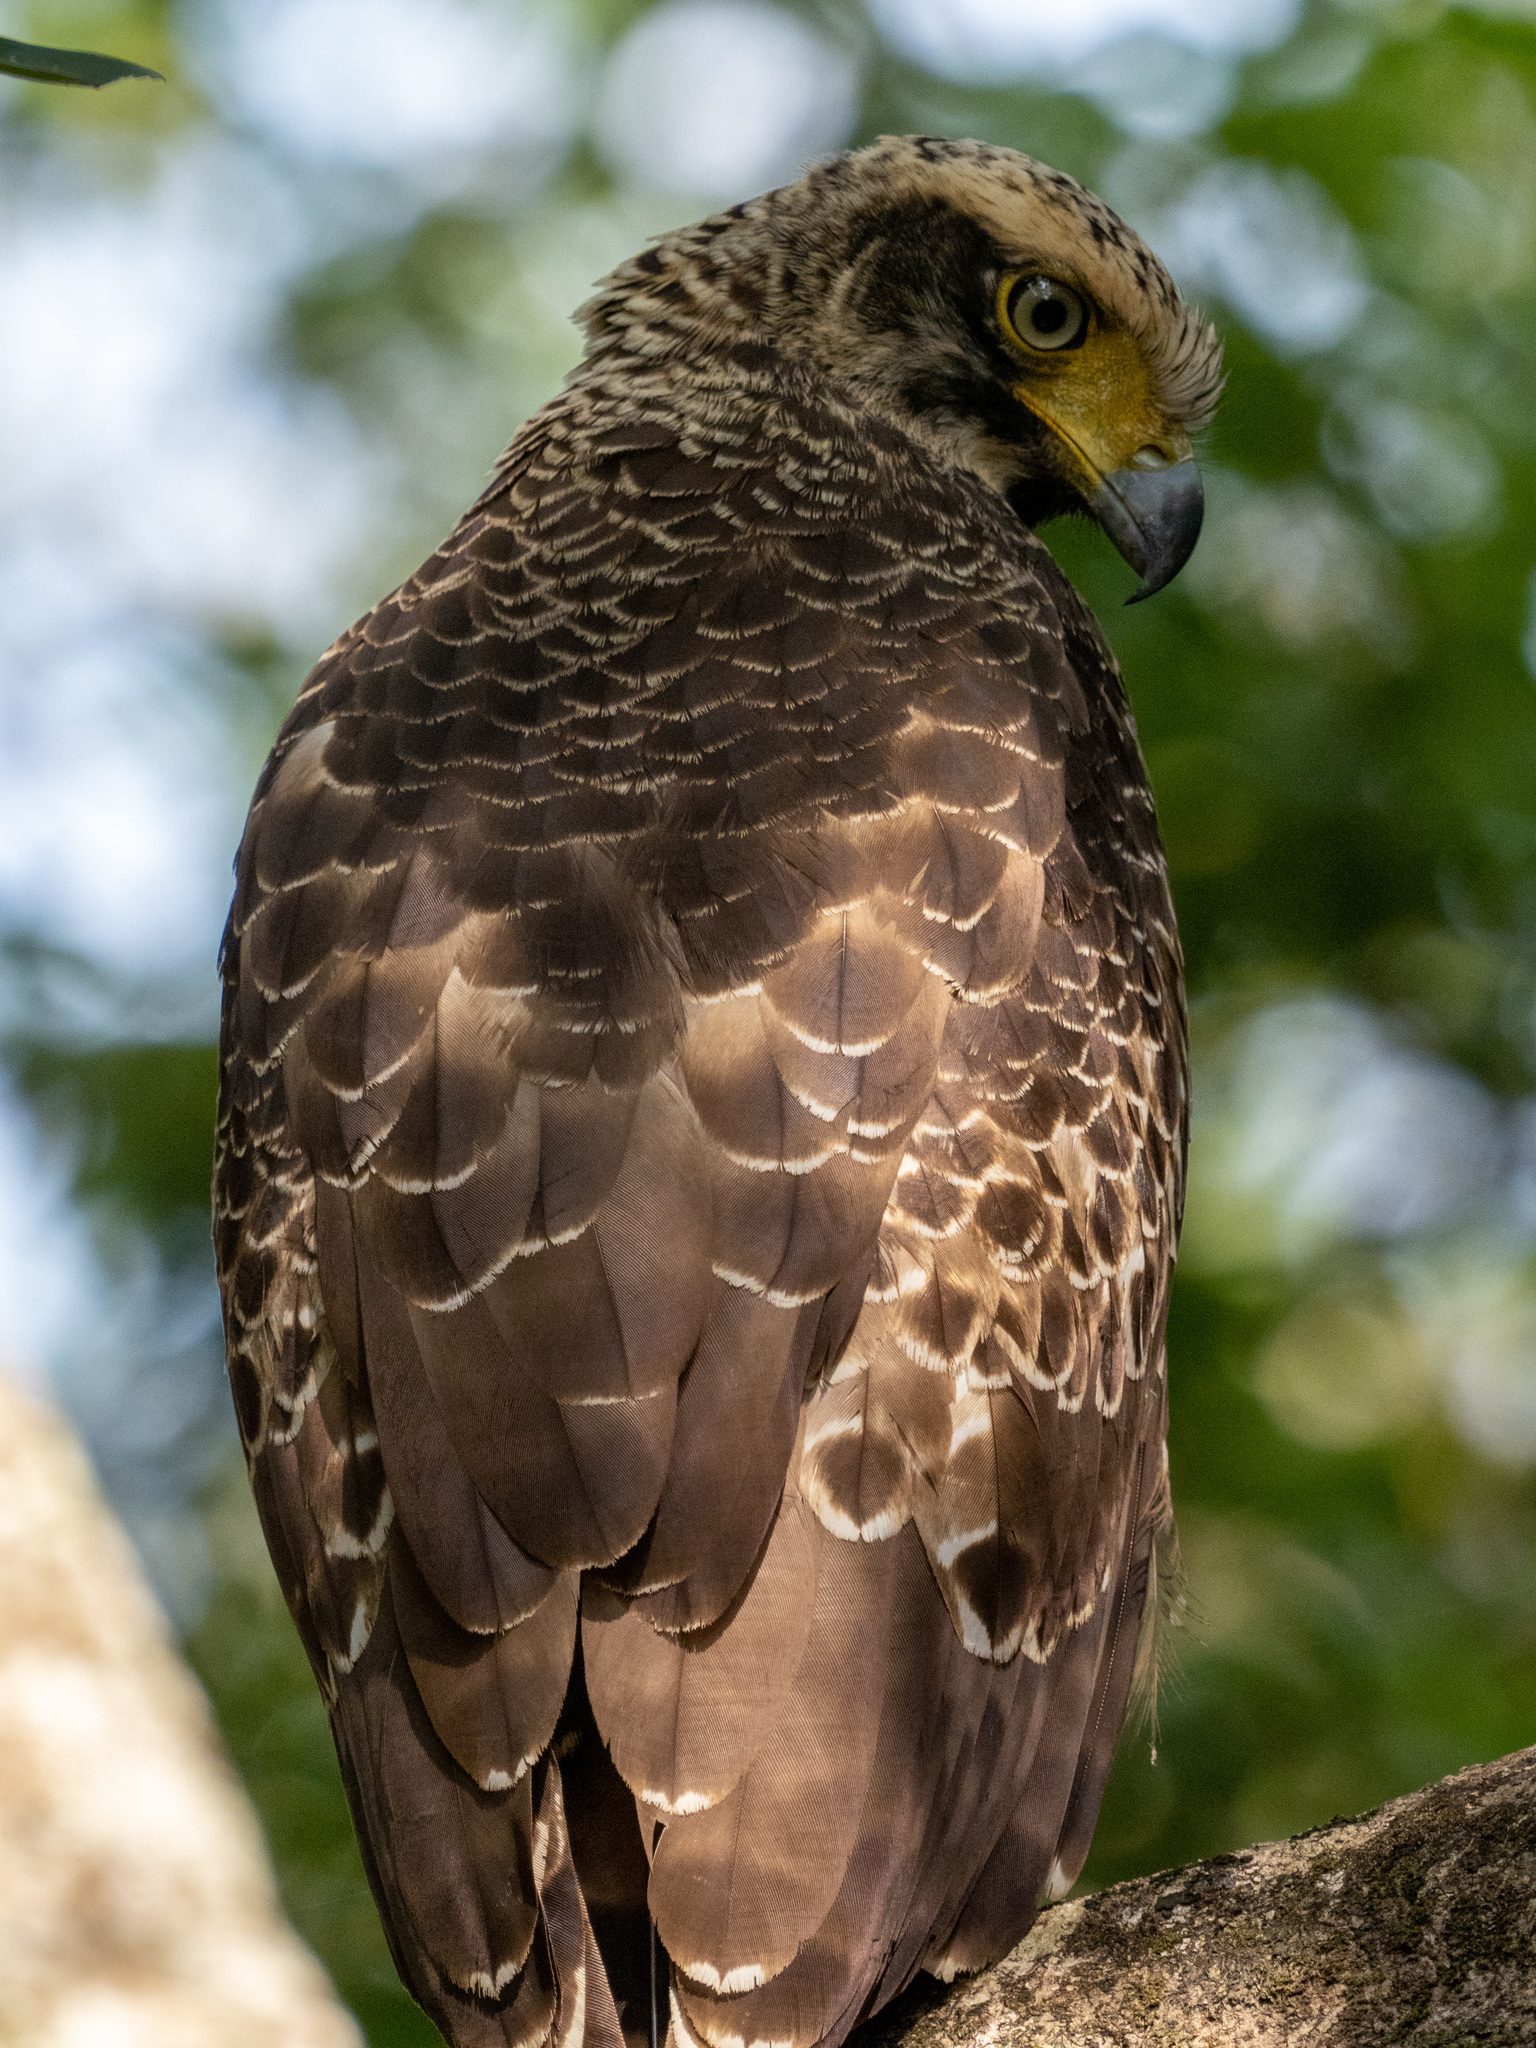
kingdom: Animalia
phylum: Chordata
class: Aves
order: Accipitriformes
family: Accipitridae
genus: Spilornis
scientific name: Spilornis cheela
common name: Crested serpent eagle
